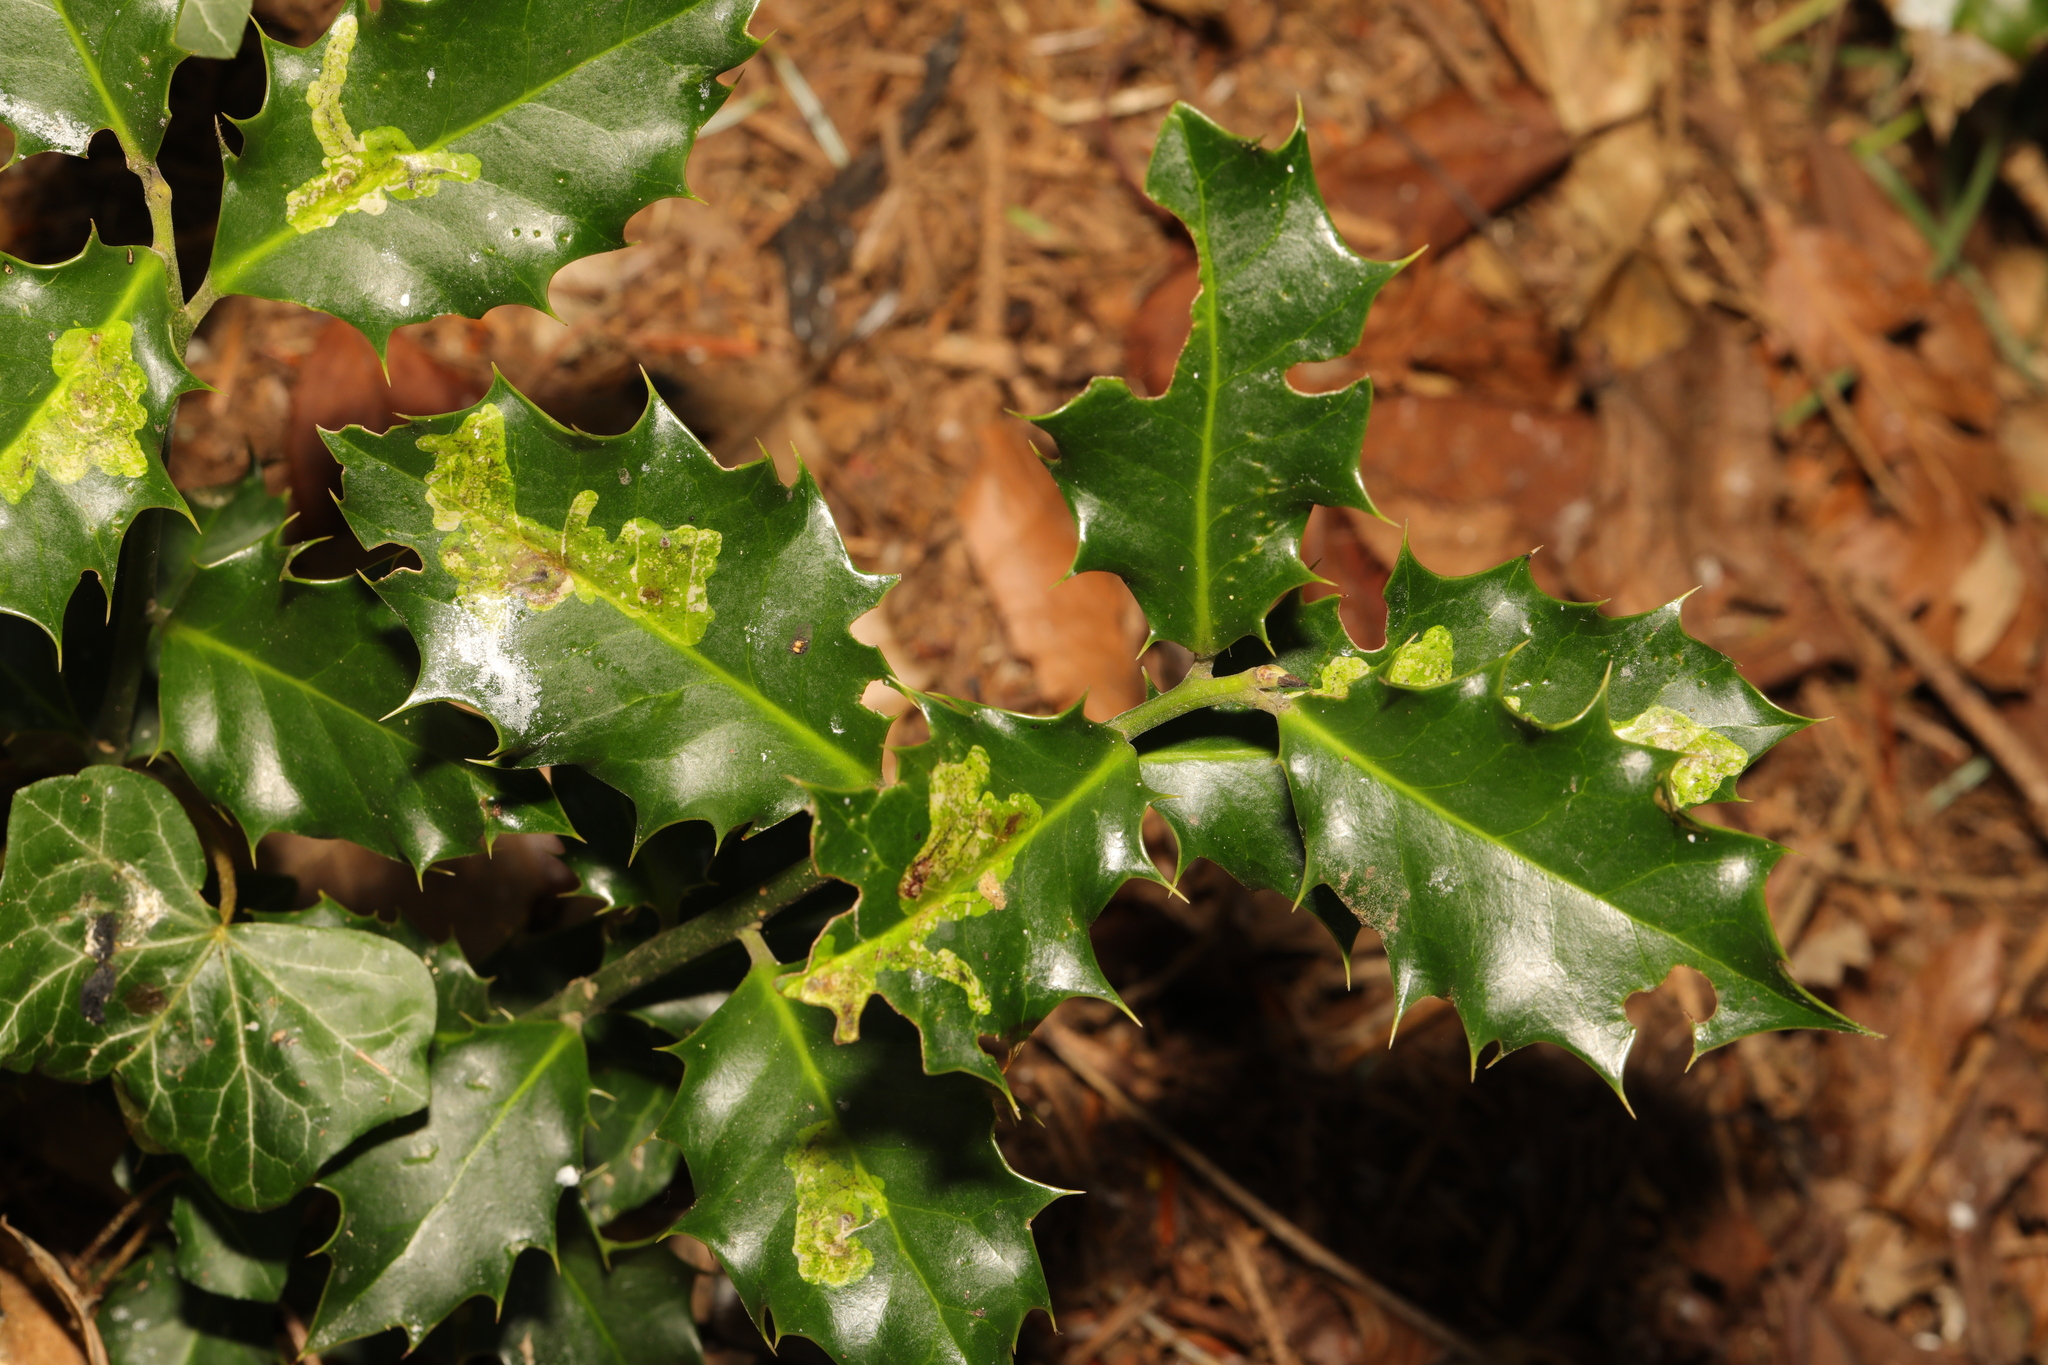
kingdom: Plantae
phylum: Tracheophyta
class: Magnoliopsida
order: Aquifoliales
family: Aquifoliaceae
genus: Ilex
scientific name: Ilex aquifolium
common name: English holly
